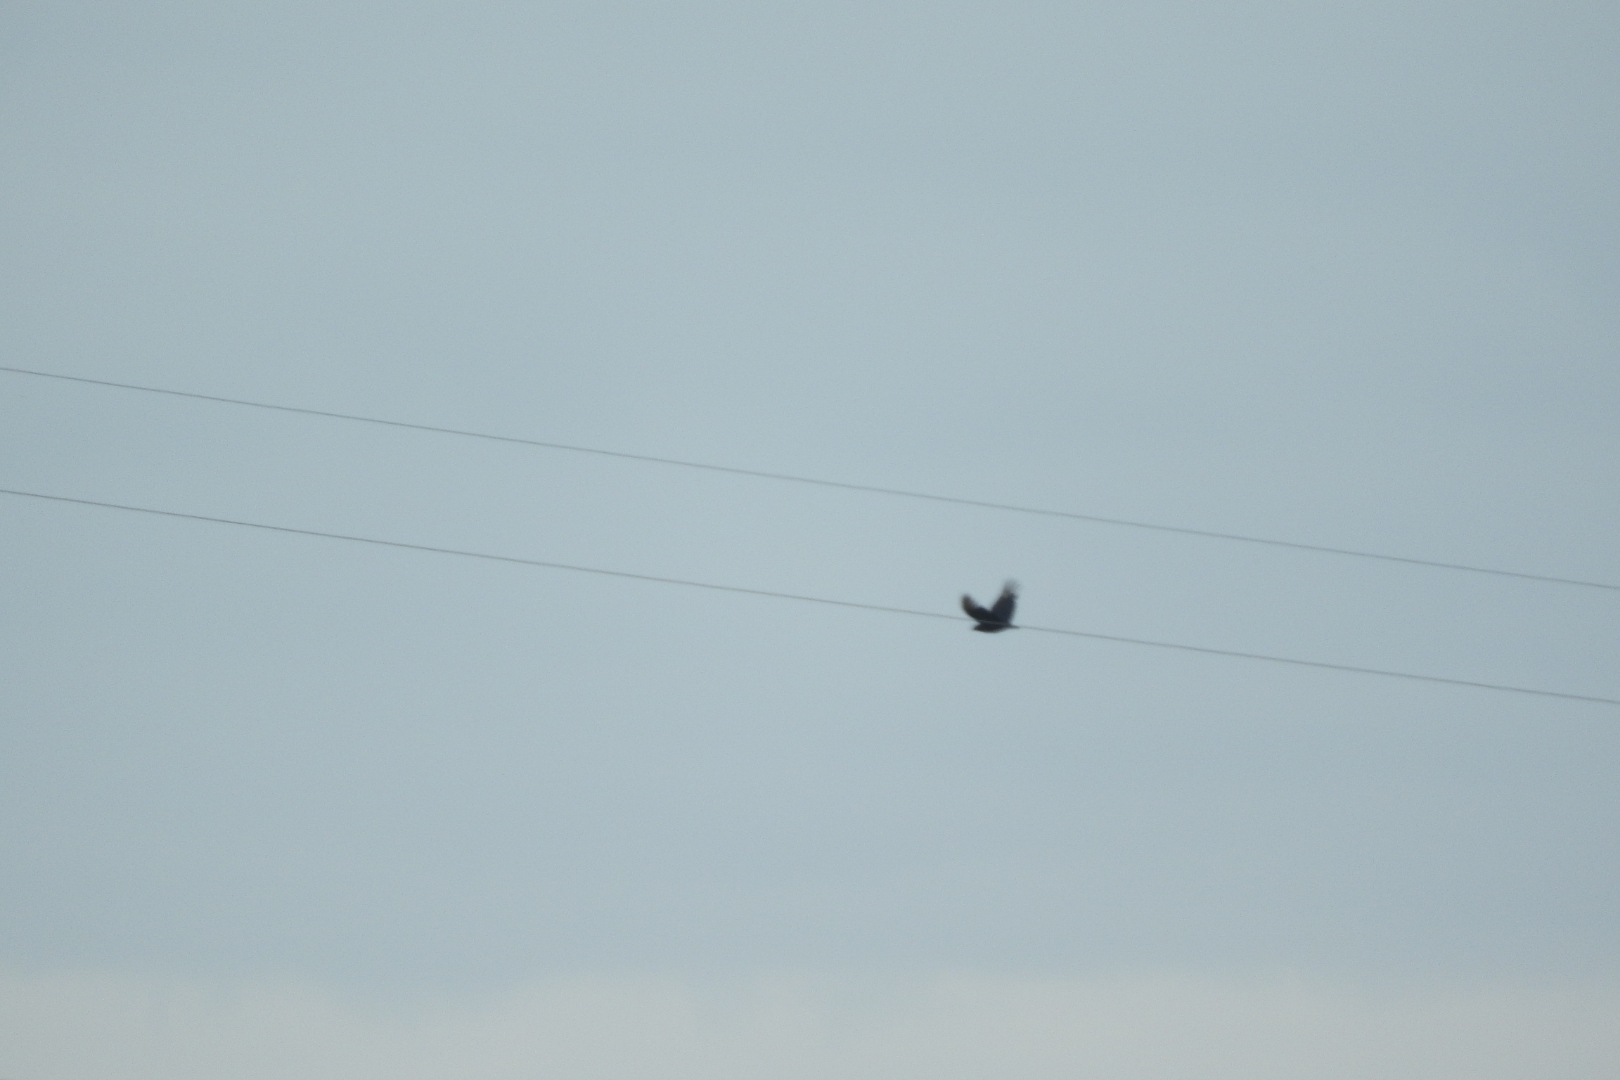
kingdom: Animalia
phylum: Chordata
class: Aves
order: Accipitriformes
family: Cathartidae
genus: Coragyps
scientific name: Coragyps atratus
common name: Black vulture
